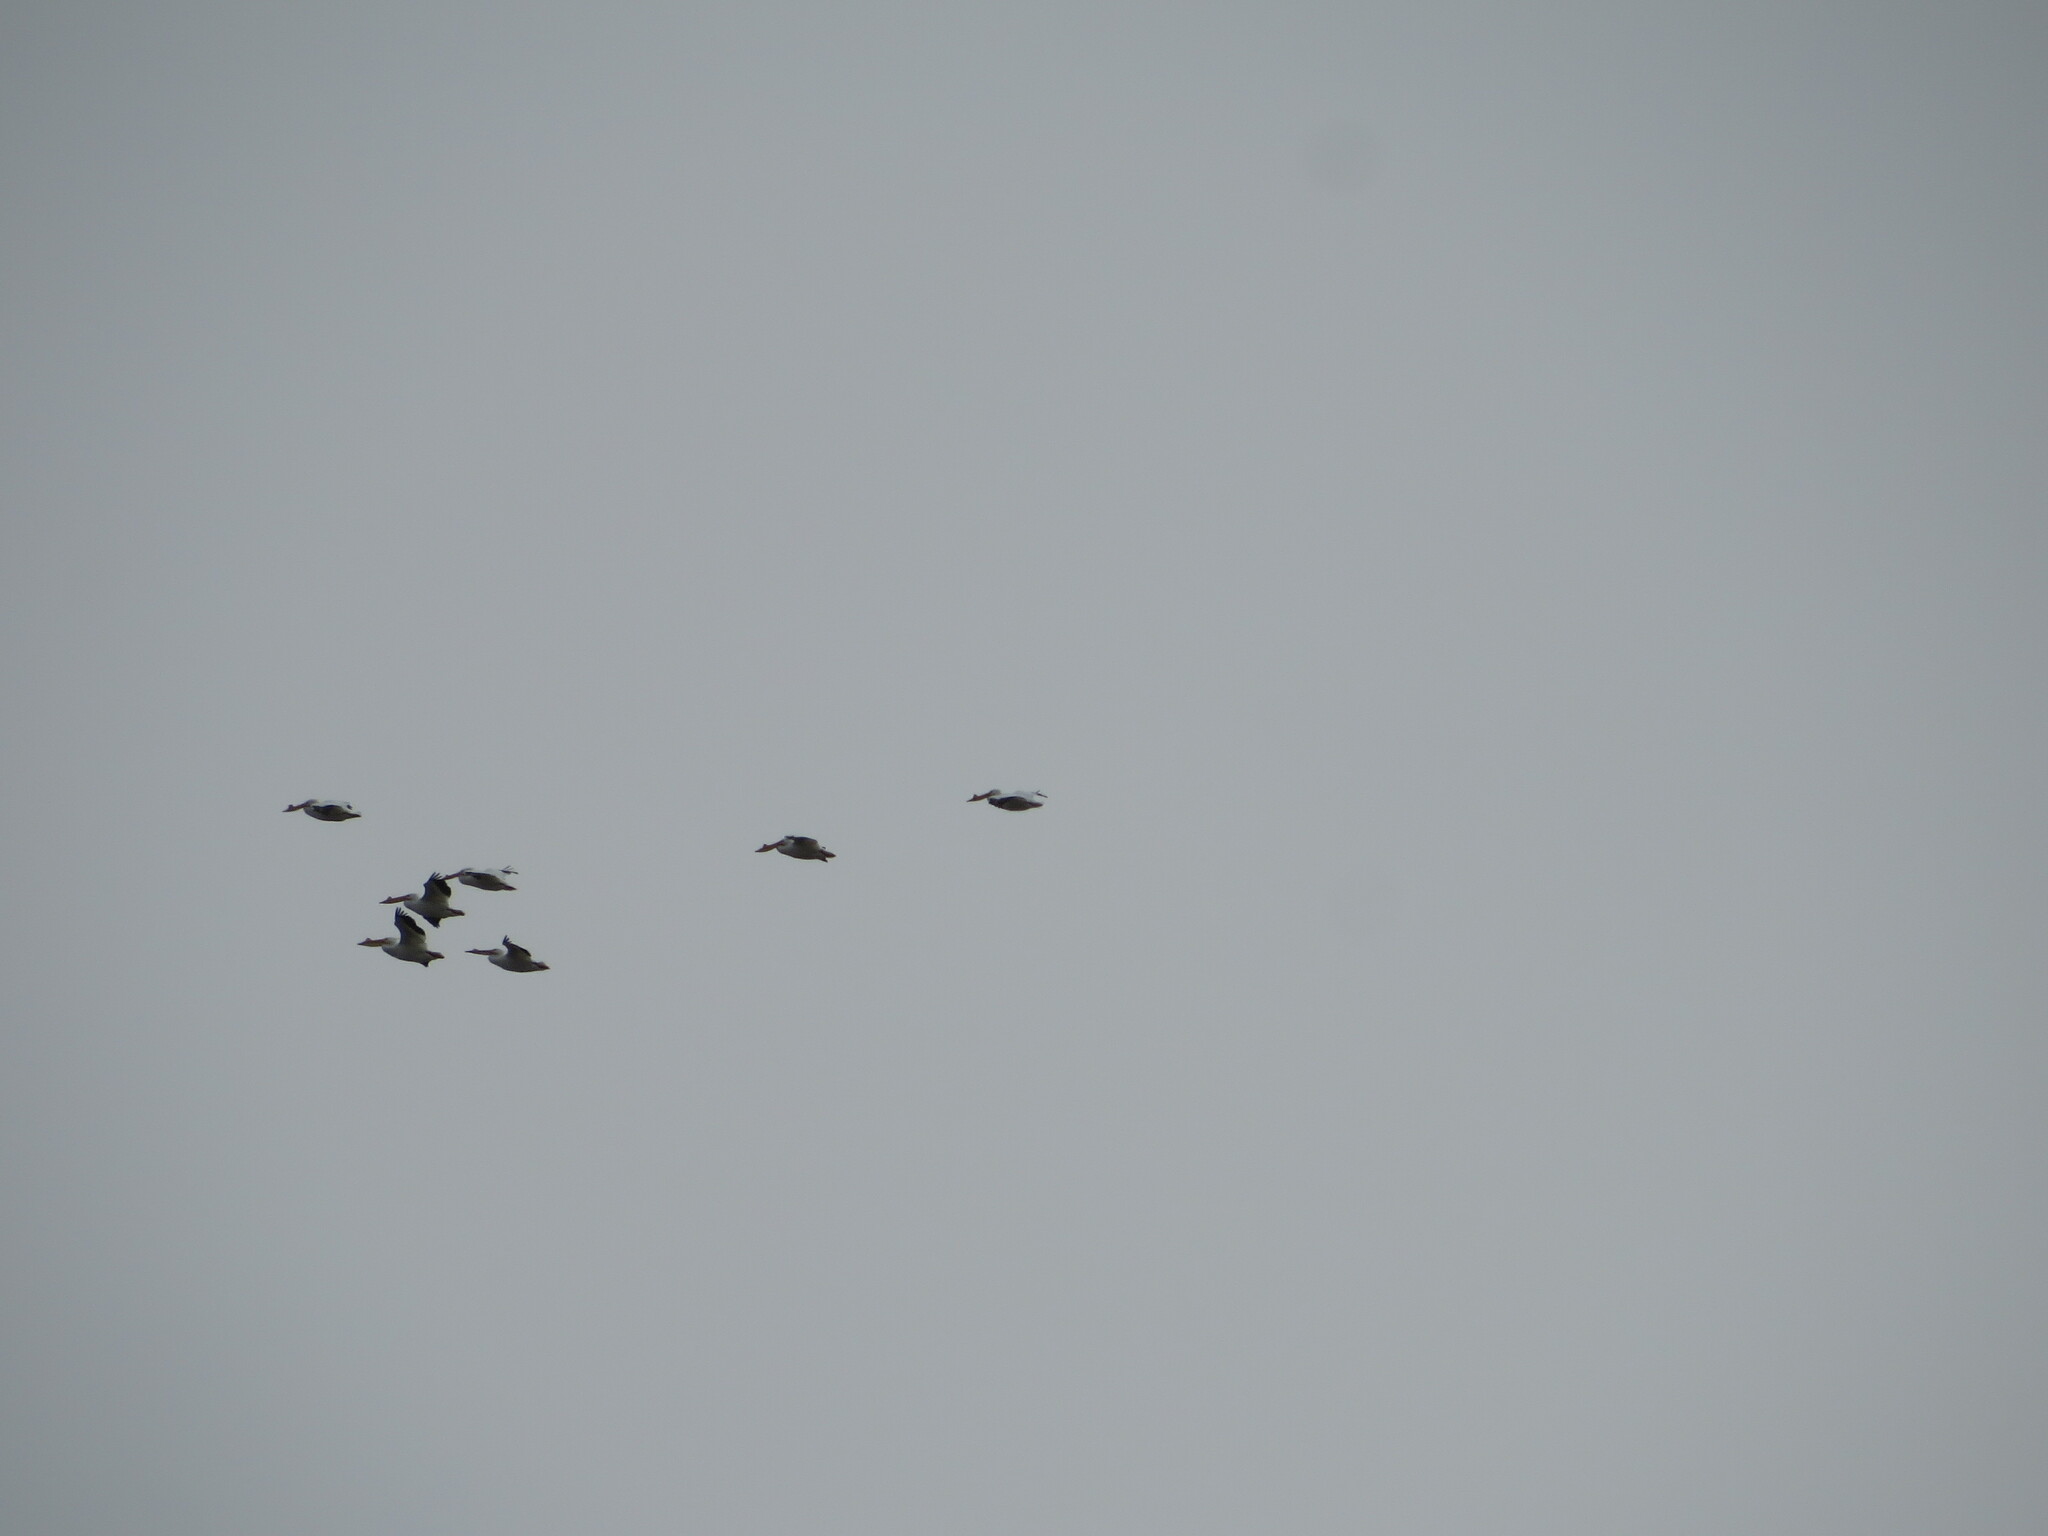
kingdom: Animalia
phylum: Chordata
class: Aves
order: Pelecaniformes
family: Pelecanidae
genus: Pelecanus
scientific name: Pelecanus erythrorhynchos
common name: American white pelican
